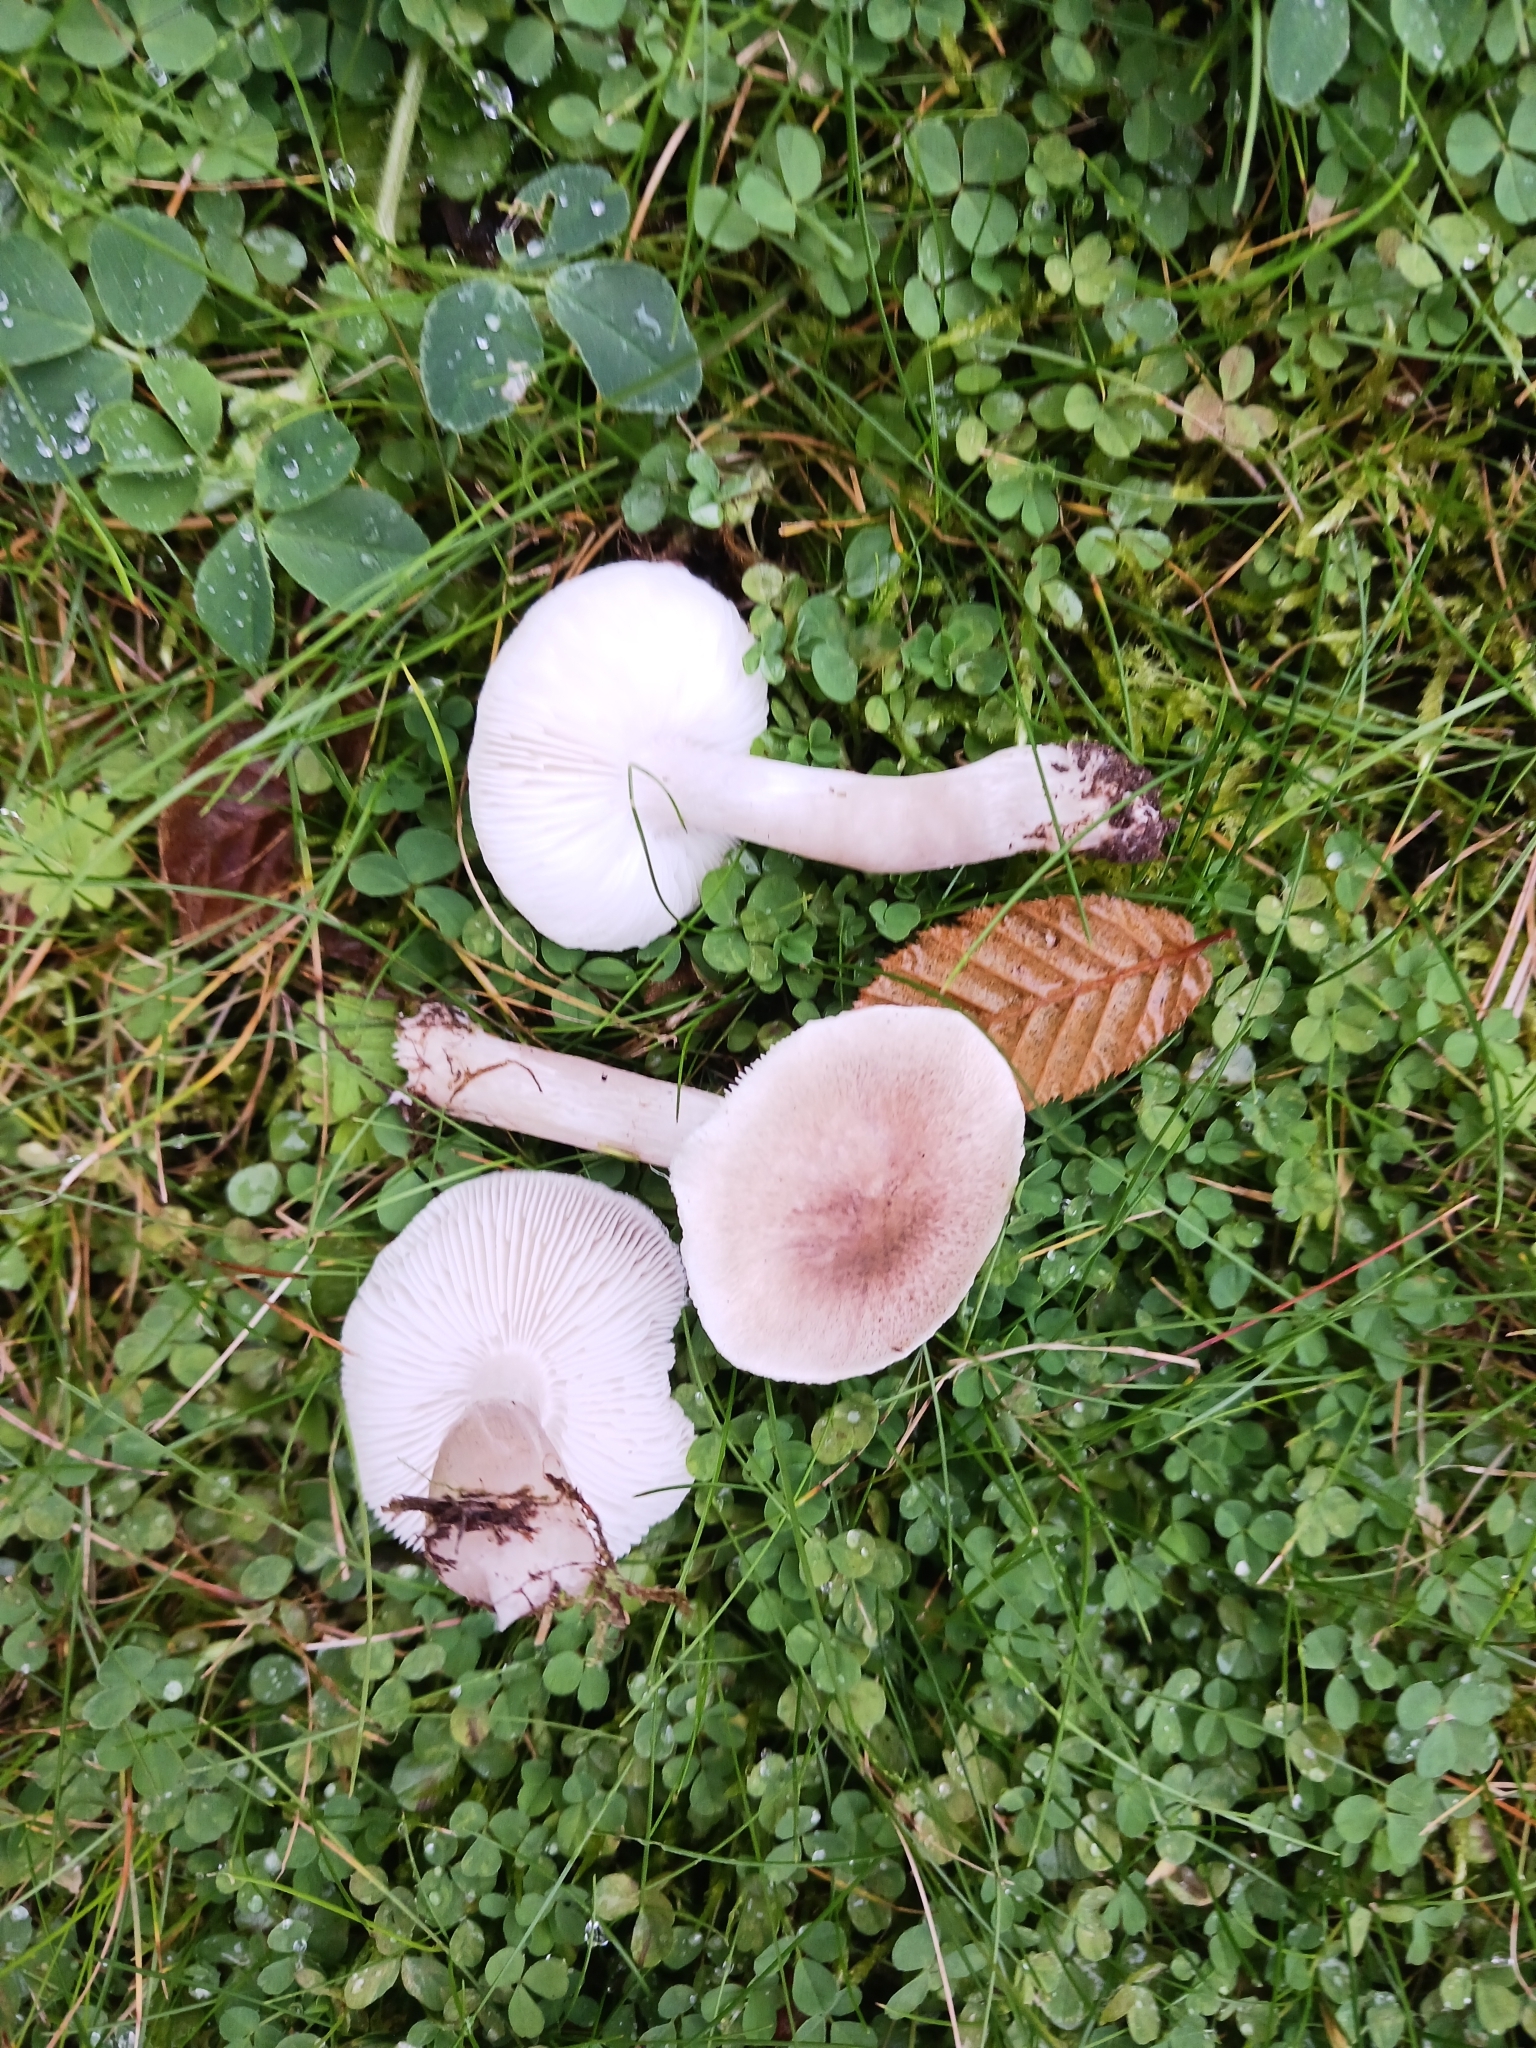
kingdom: Fungi
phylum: Basidiomycota
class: Agaricomycetes
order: Agaricales
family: Tricholomataceae
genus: Tricholoma
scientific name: Tricholoma scalpturatum
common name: Yellowing knight
